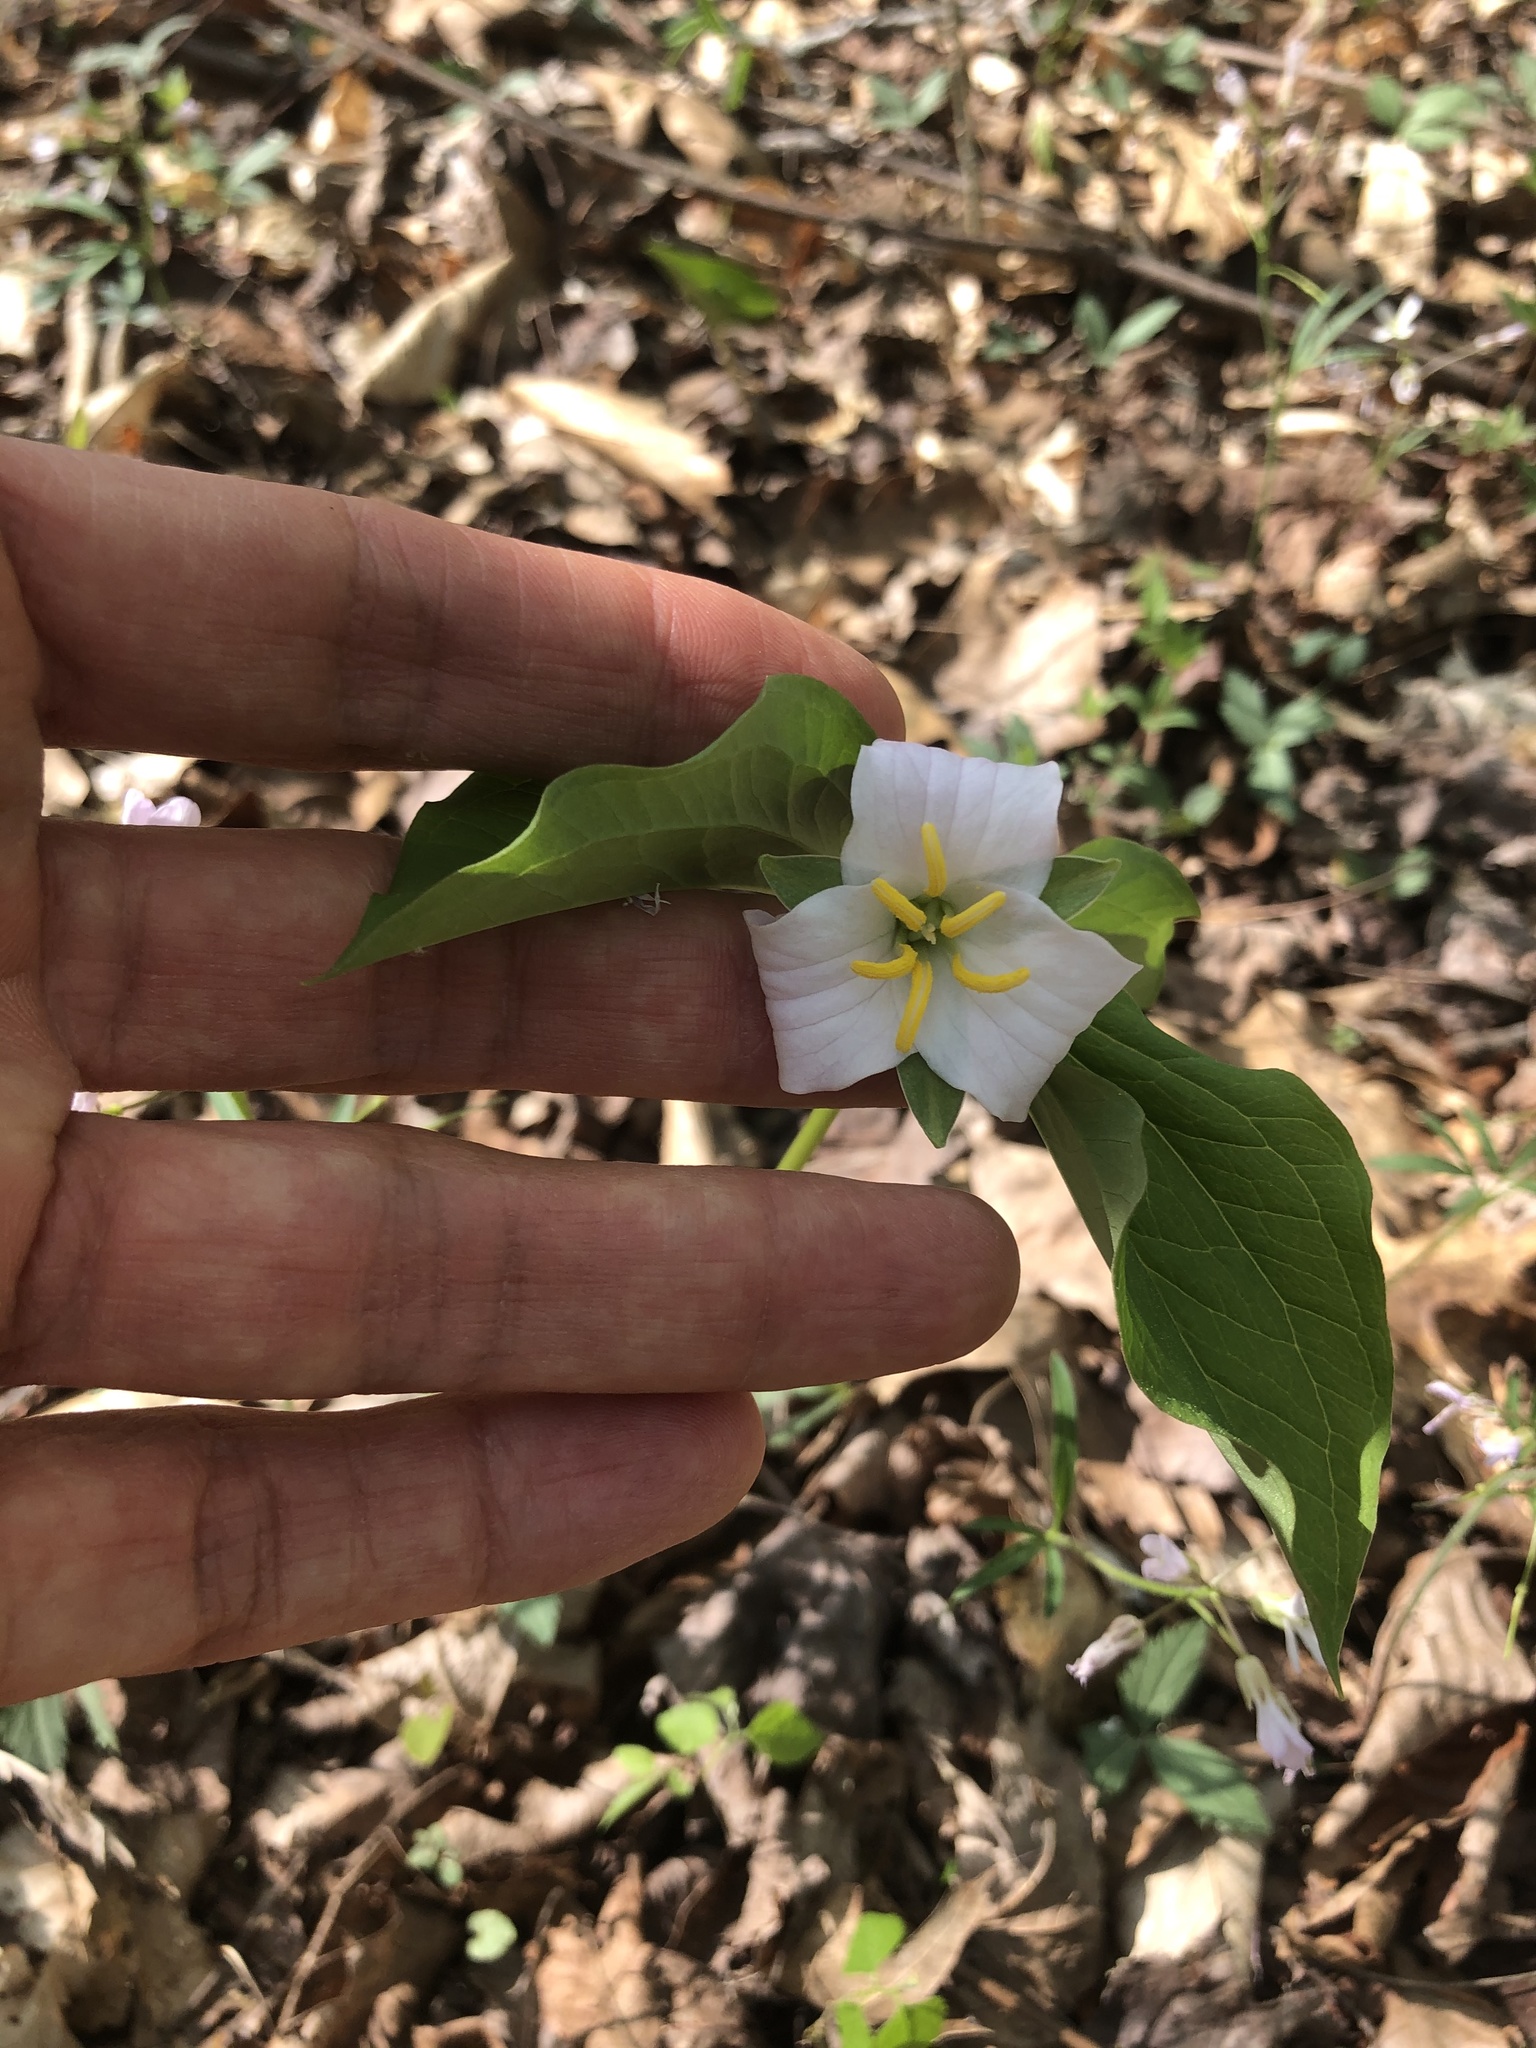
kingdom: Plantae
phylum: Tracheophyta
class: Liliopsida
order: Liliales
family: Melanthiaceae
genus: Trillium
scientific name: Trillium catesbaei
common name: Bashful trillium
